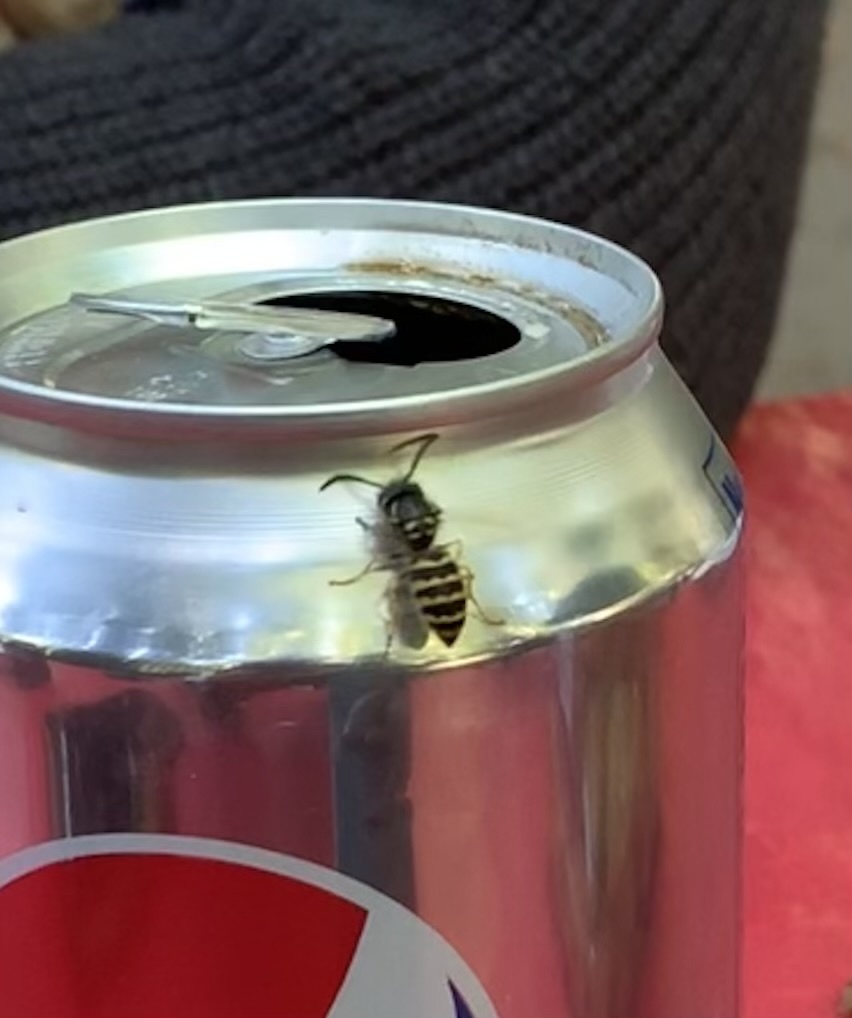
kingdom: Animalia
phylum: Arthropoda
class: Insecta
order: Hymenoptera
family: Vespidae
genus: Vespula
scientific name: Vespula alascensis
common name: Alaska yellowjacket
